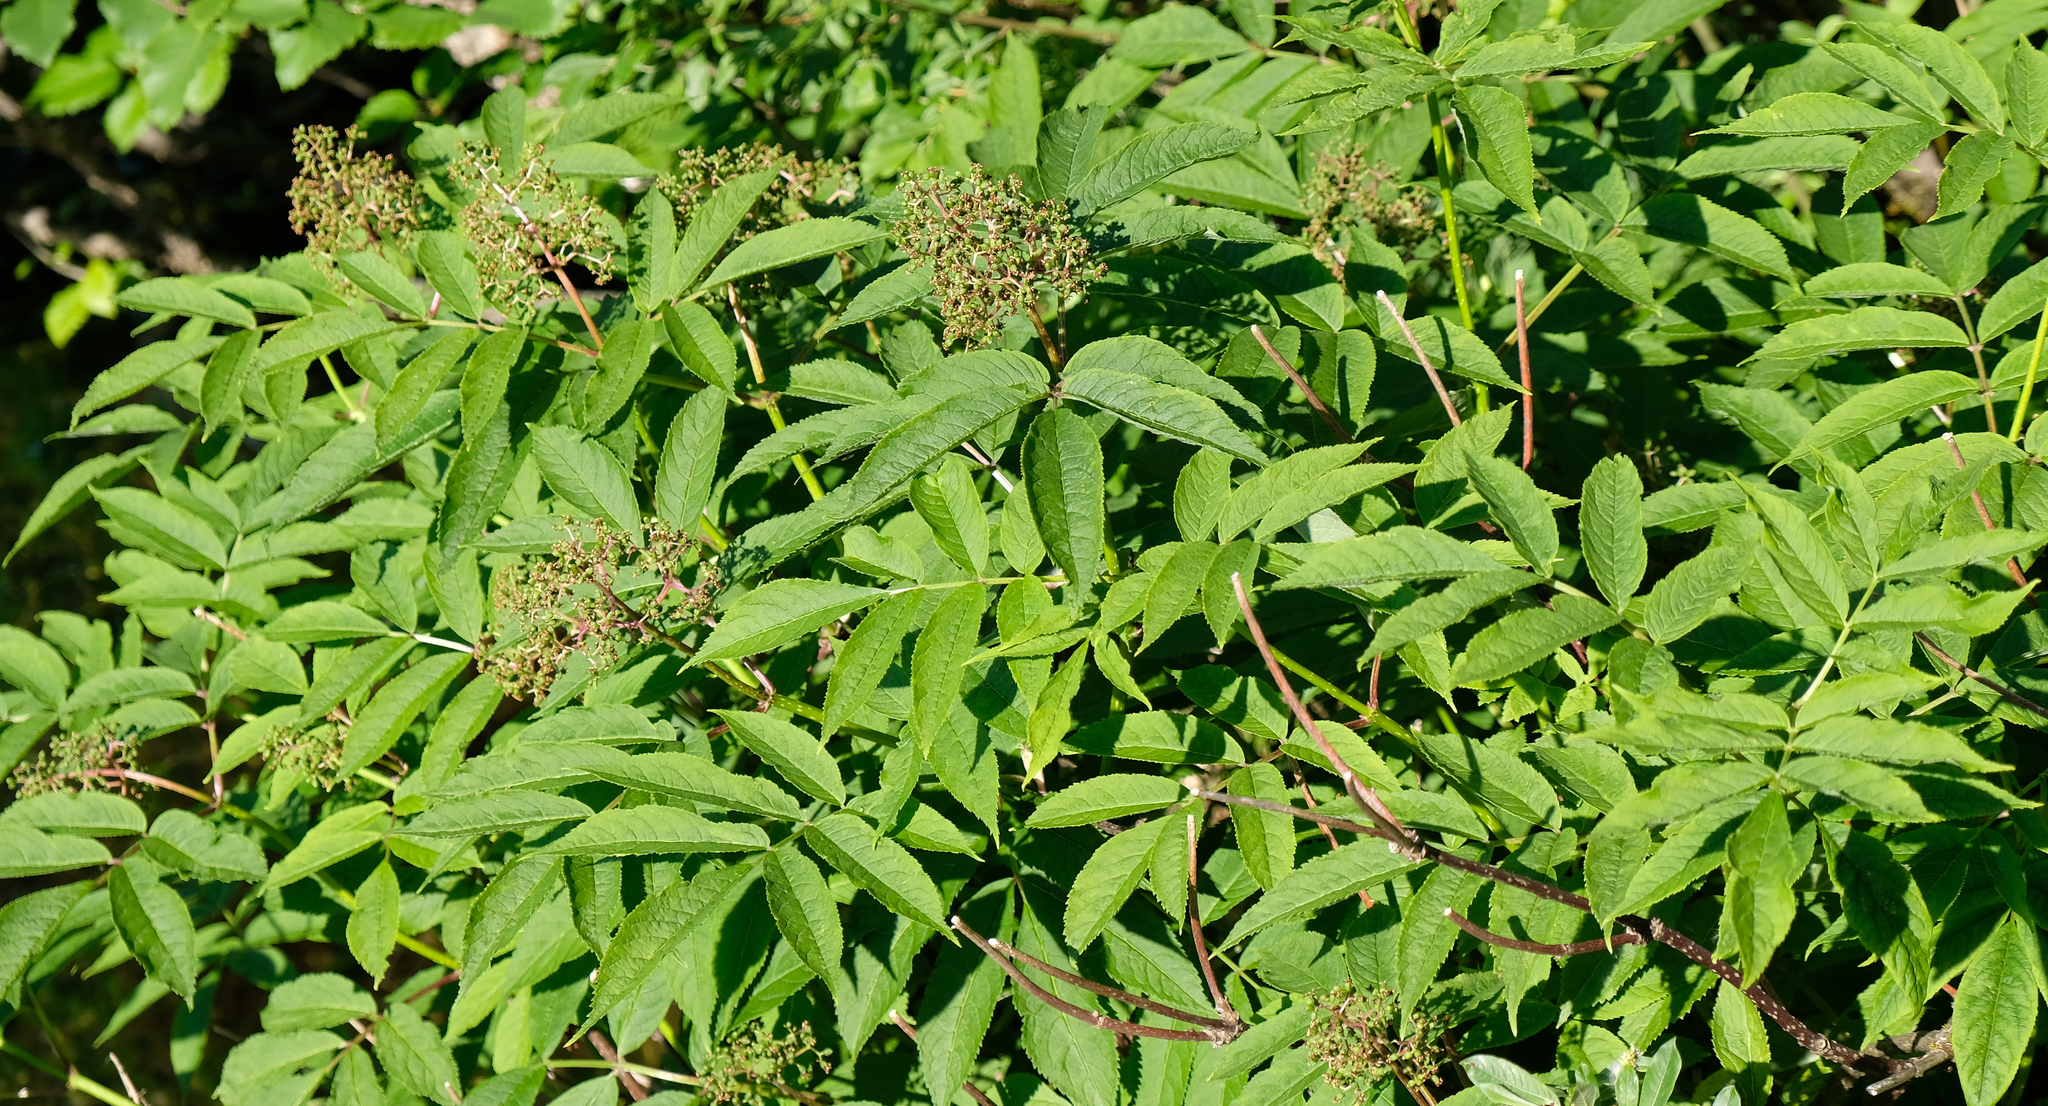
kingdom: Plantae
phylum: Tracheophyta
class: Magnoliopsida
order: Dipsacales
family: Viburnaceae
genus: Sambucus
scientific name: Sambucus racemosa
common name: Red-berried elder
